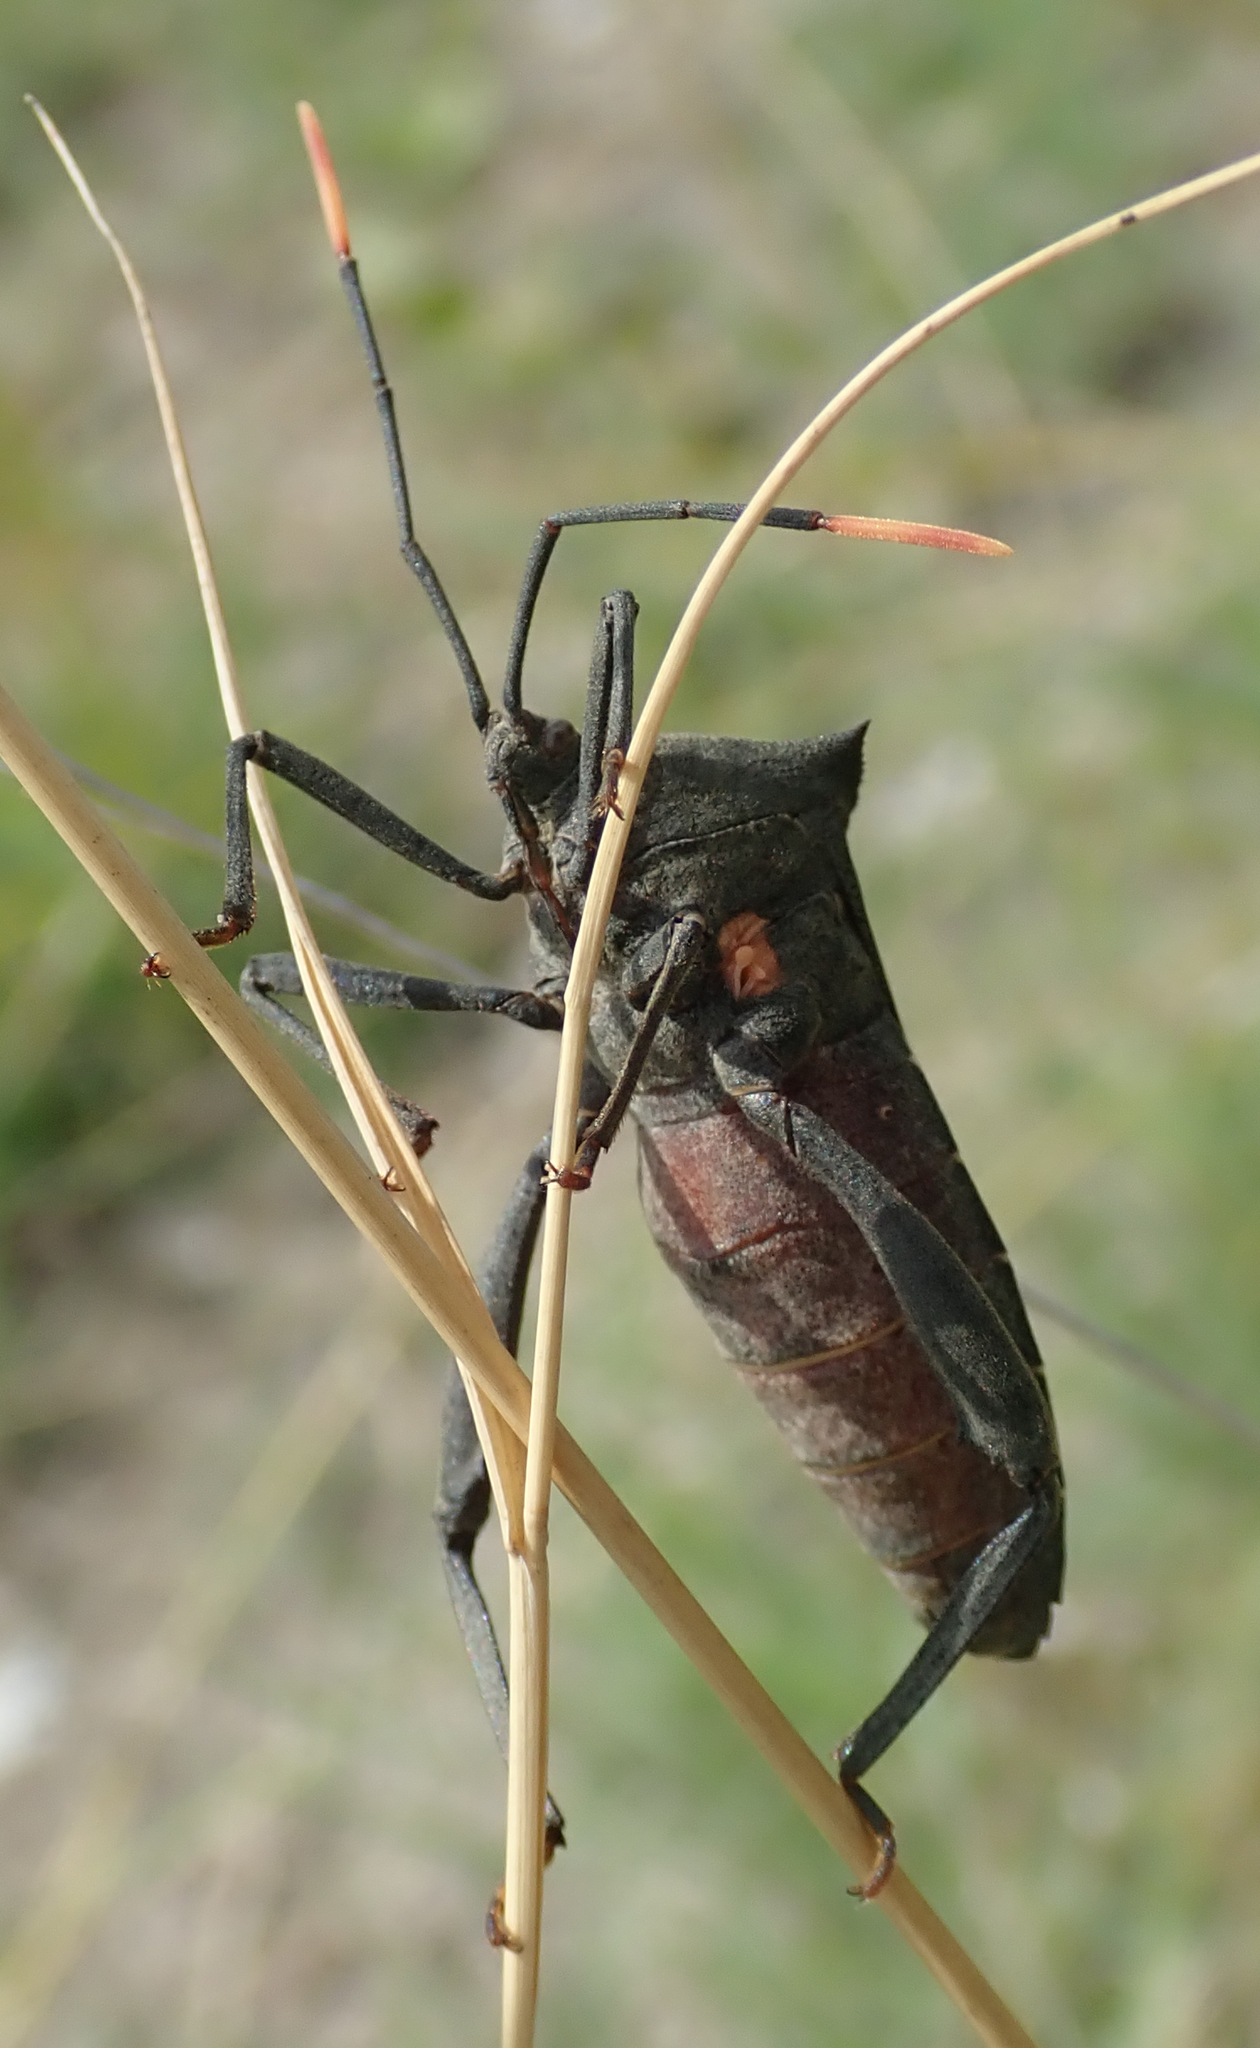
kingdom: Animalia
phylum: Arthropoda
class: Insecta
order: Hemiptera
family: Coreidae
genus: Anoplocnemis
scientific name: Anoplocnemis curvipes
